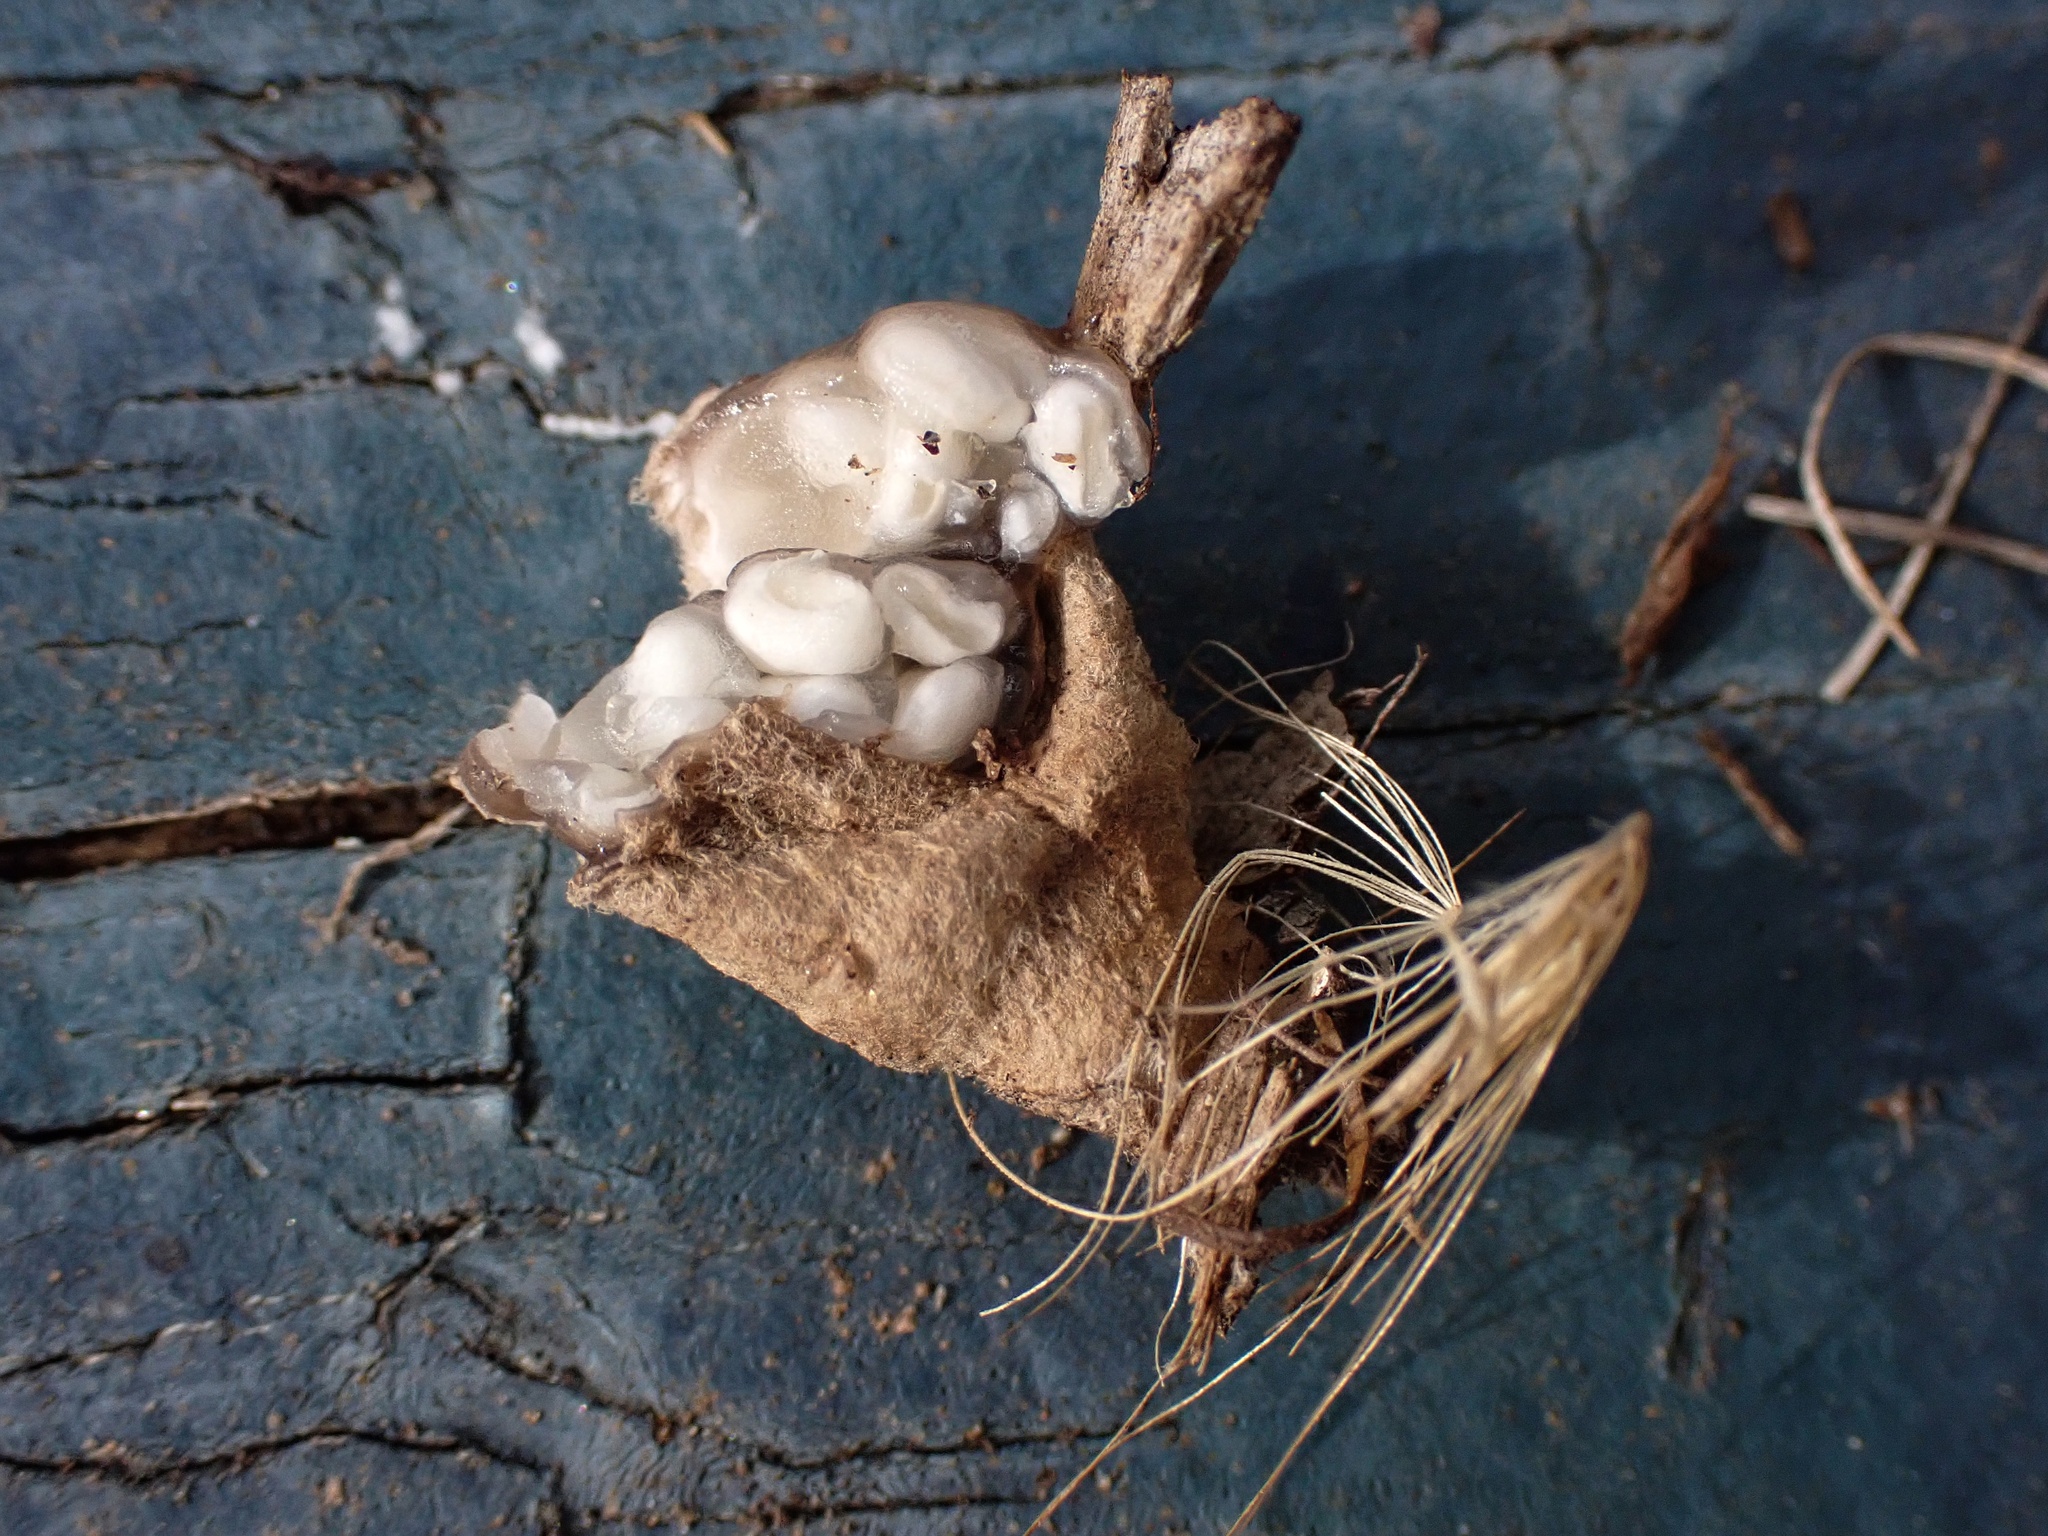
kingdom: Fungi
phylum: Basidiomycota
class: Agaricomycetes
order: Agaricales
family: Agaricaceae
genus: Nidularia
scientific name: Nidularia deformis
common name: Pea-shaped bird's nest
